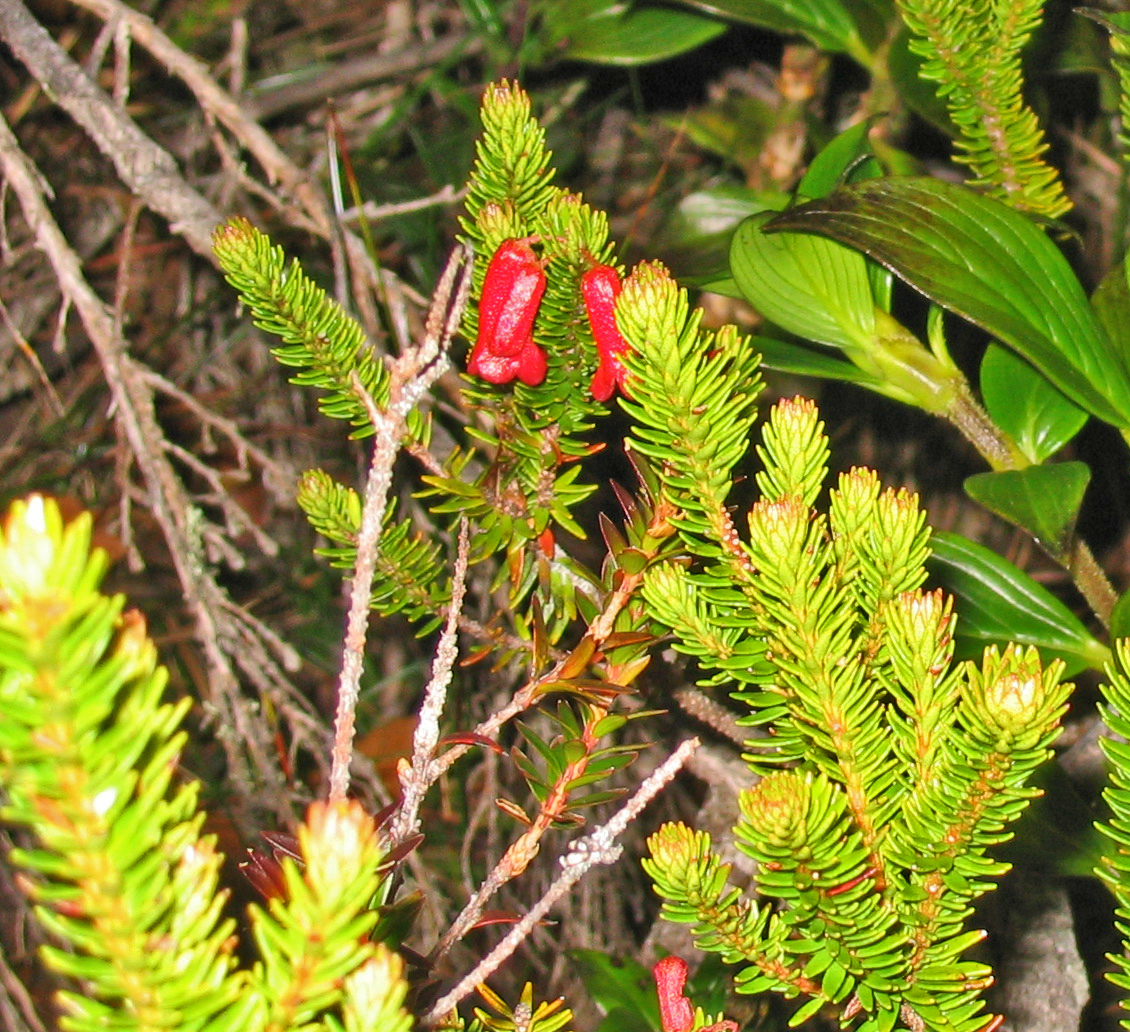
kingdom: Plantae
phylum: Tracheophyta
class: Magnoliopsida
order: Ericales
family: Ericaceae
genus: Rhododendron
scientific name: Rhododendron ericoides
